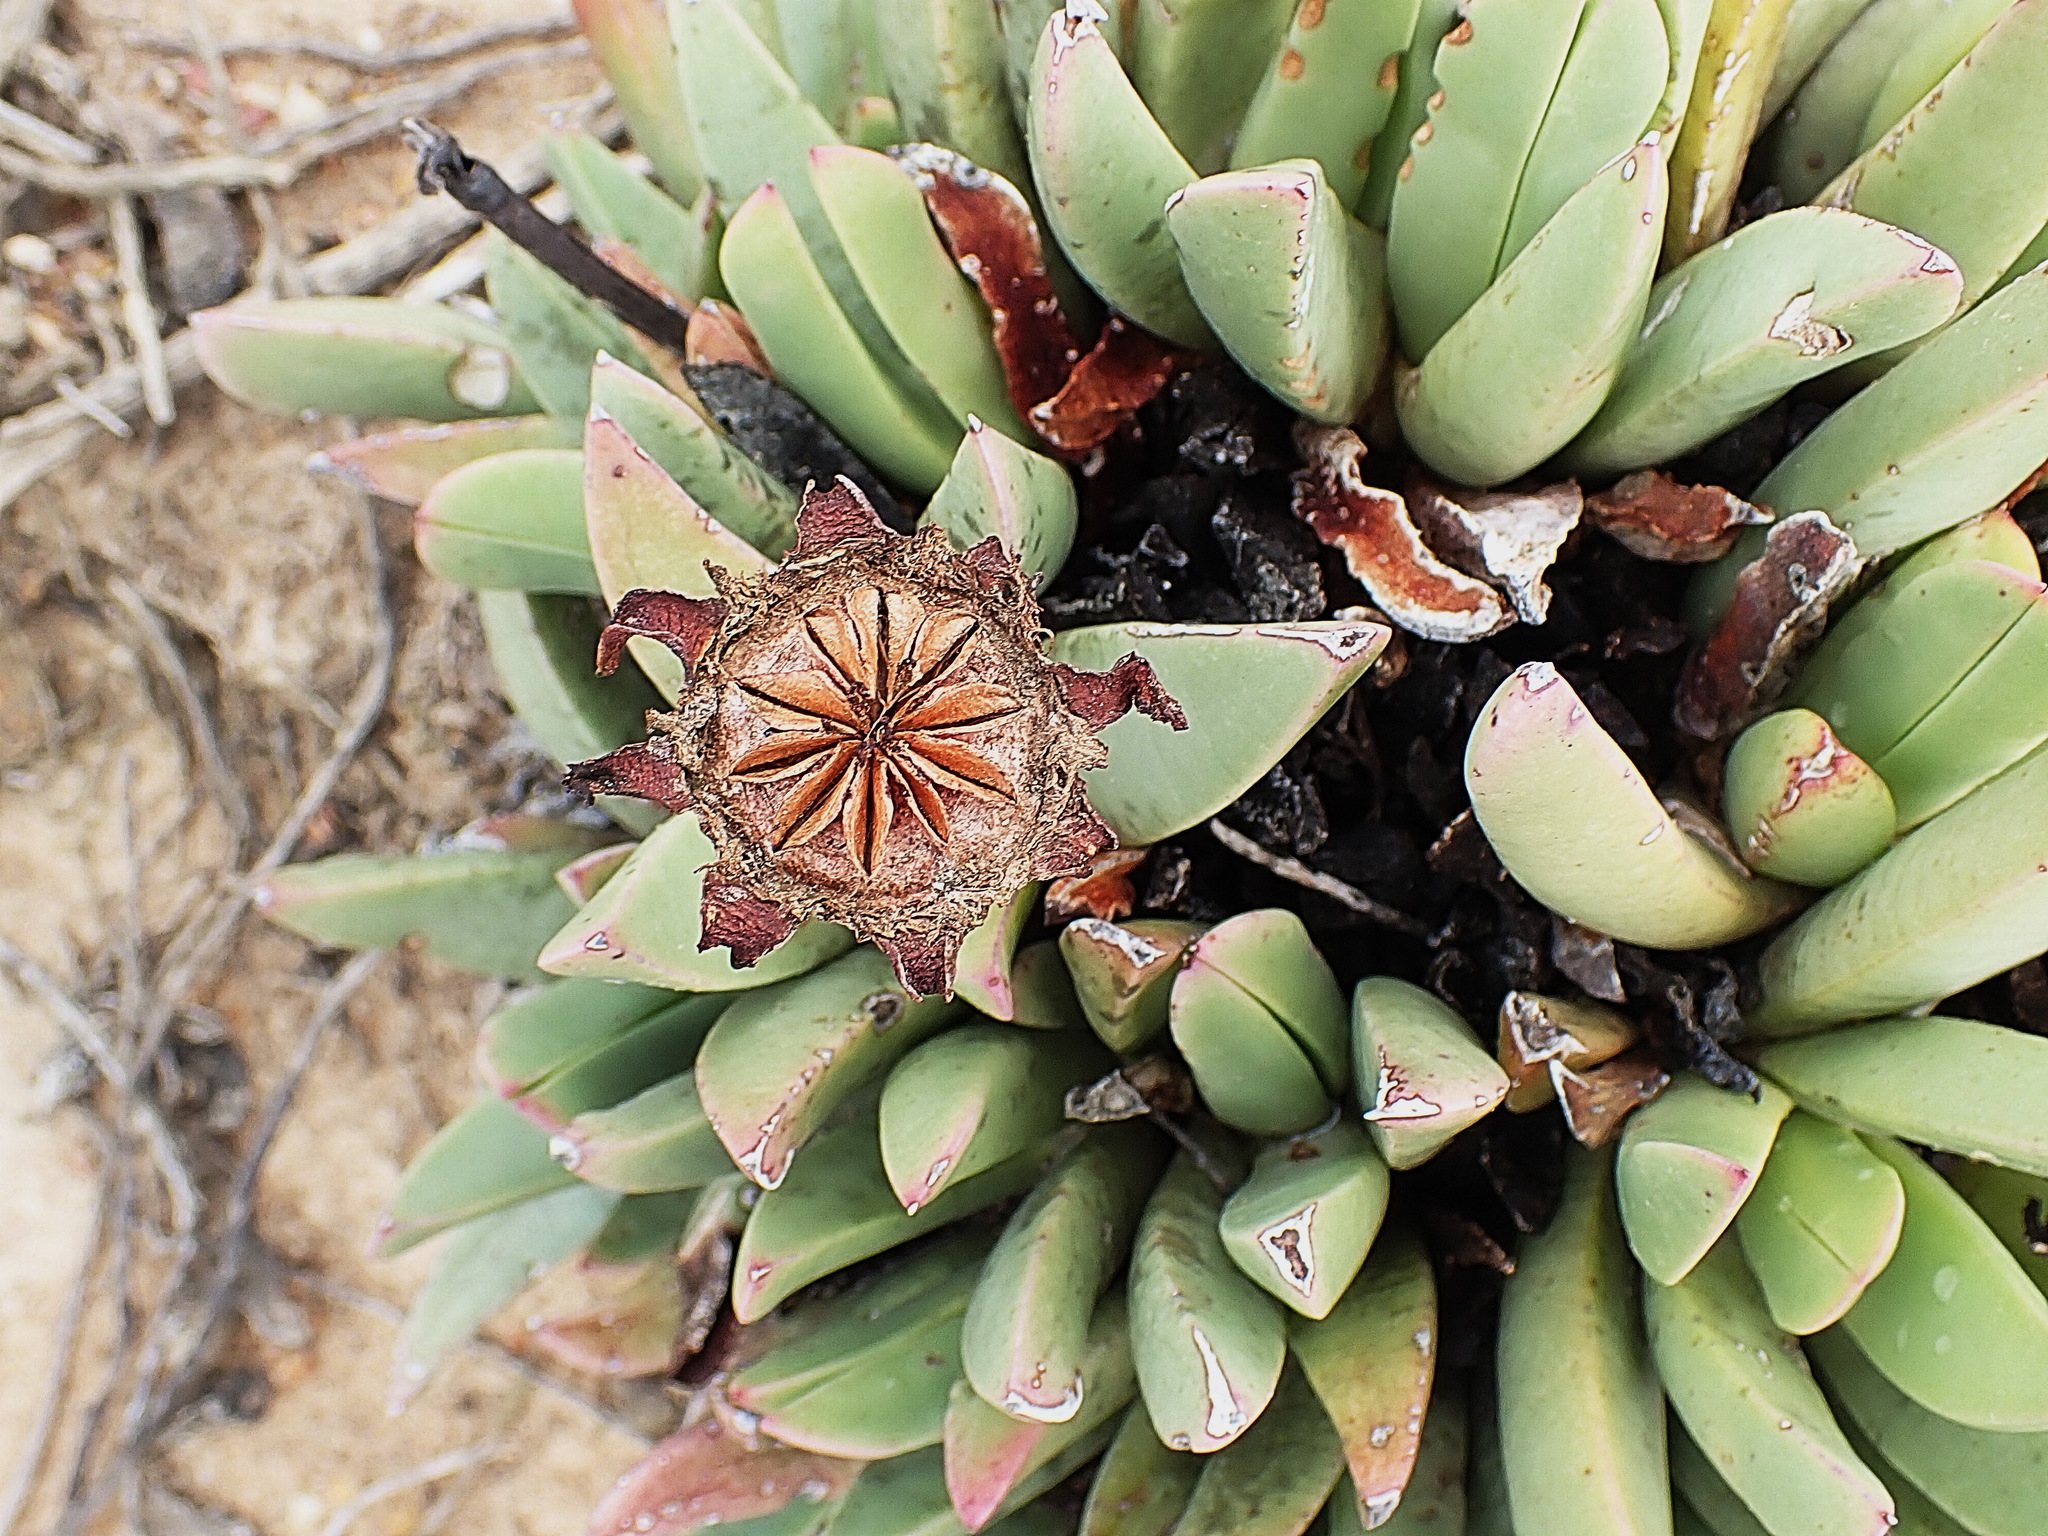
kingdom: Plantae
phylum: Tracheophyta
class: Magnoliopsida
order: Caryophyllales
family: Aizoaceae
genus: Machairophyllum
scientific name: Machairophyllum bijlii
